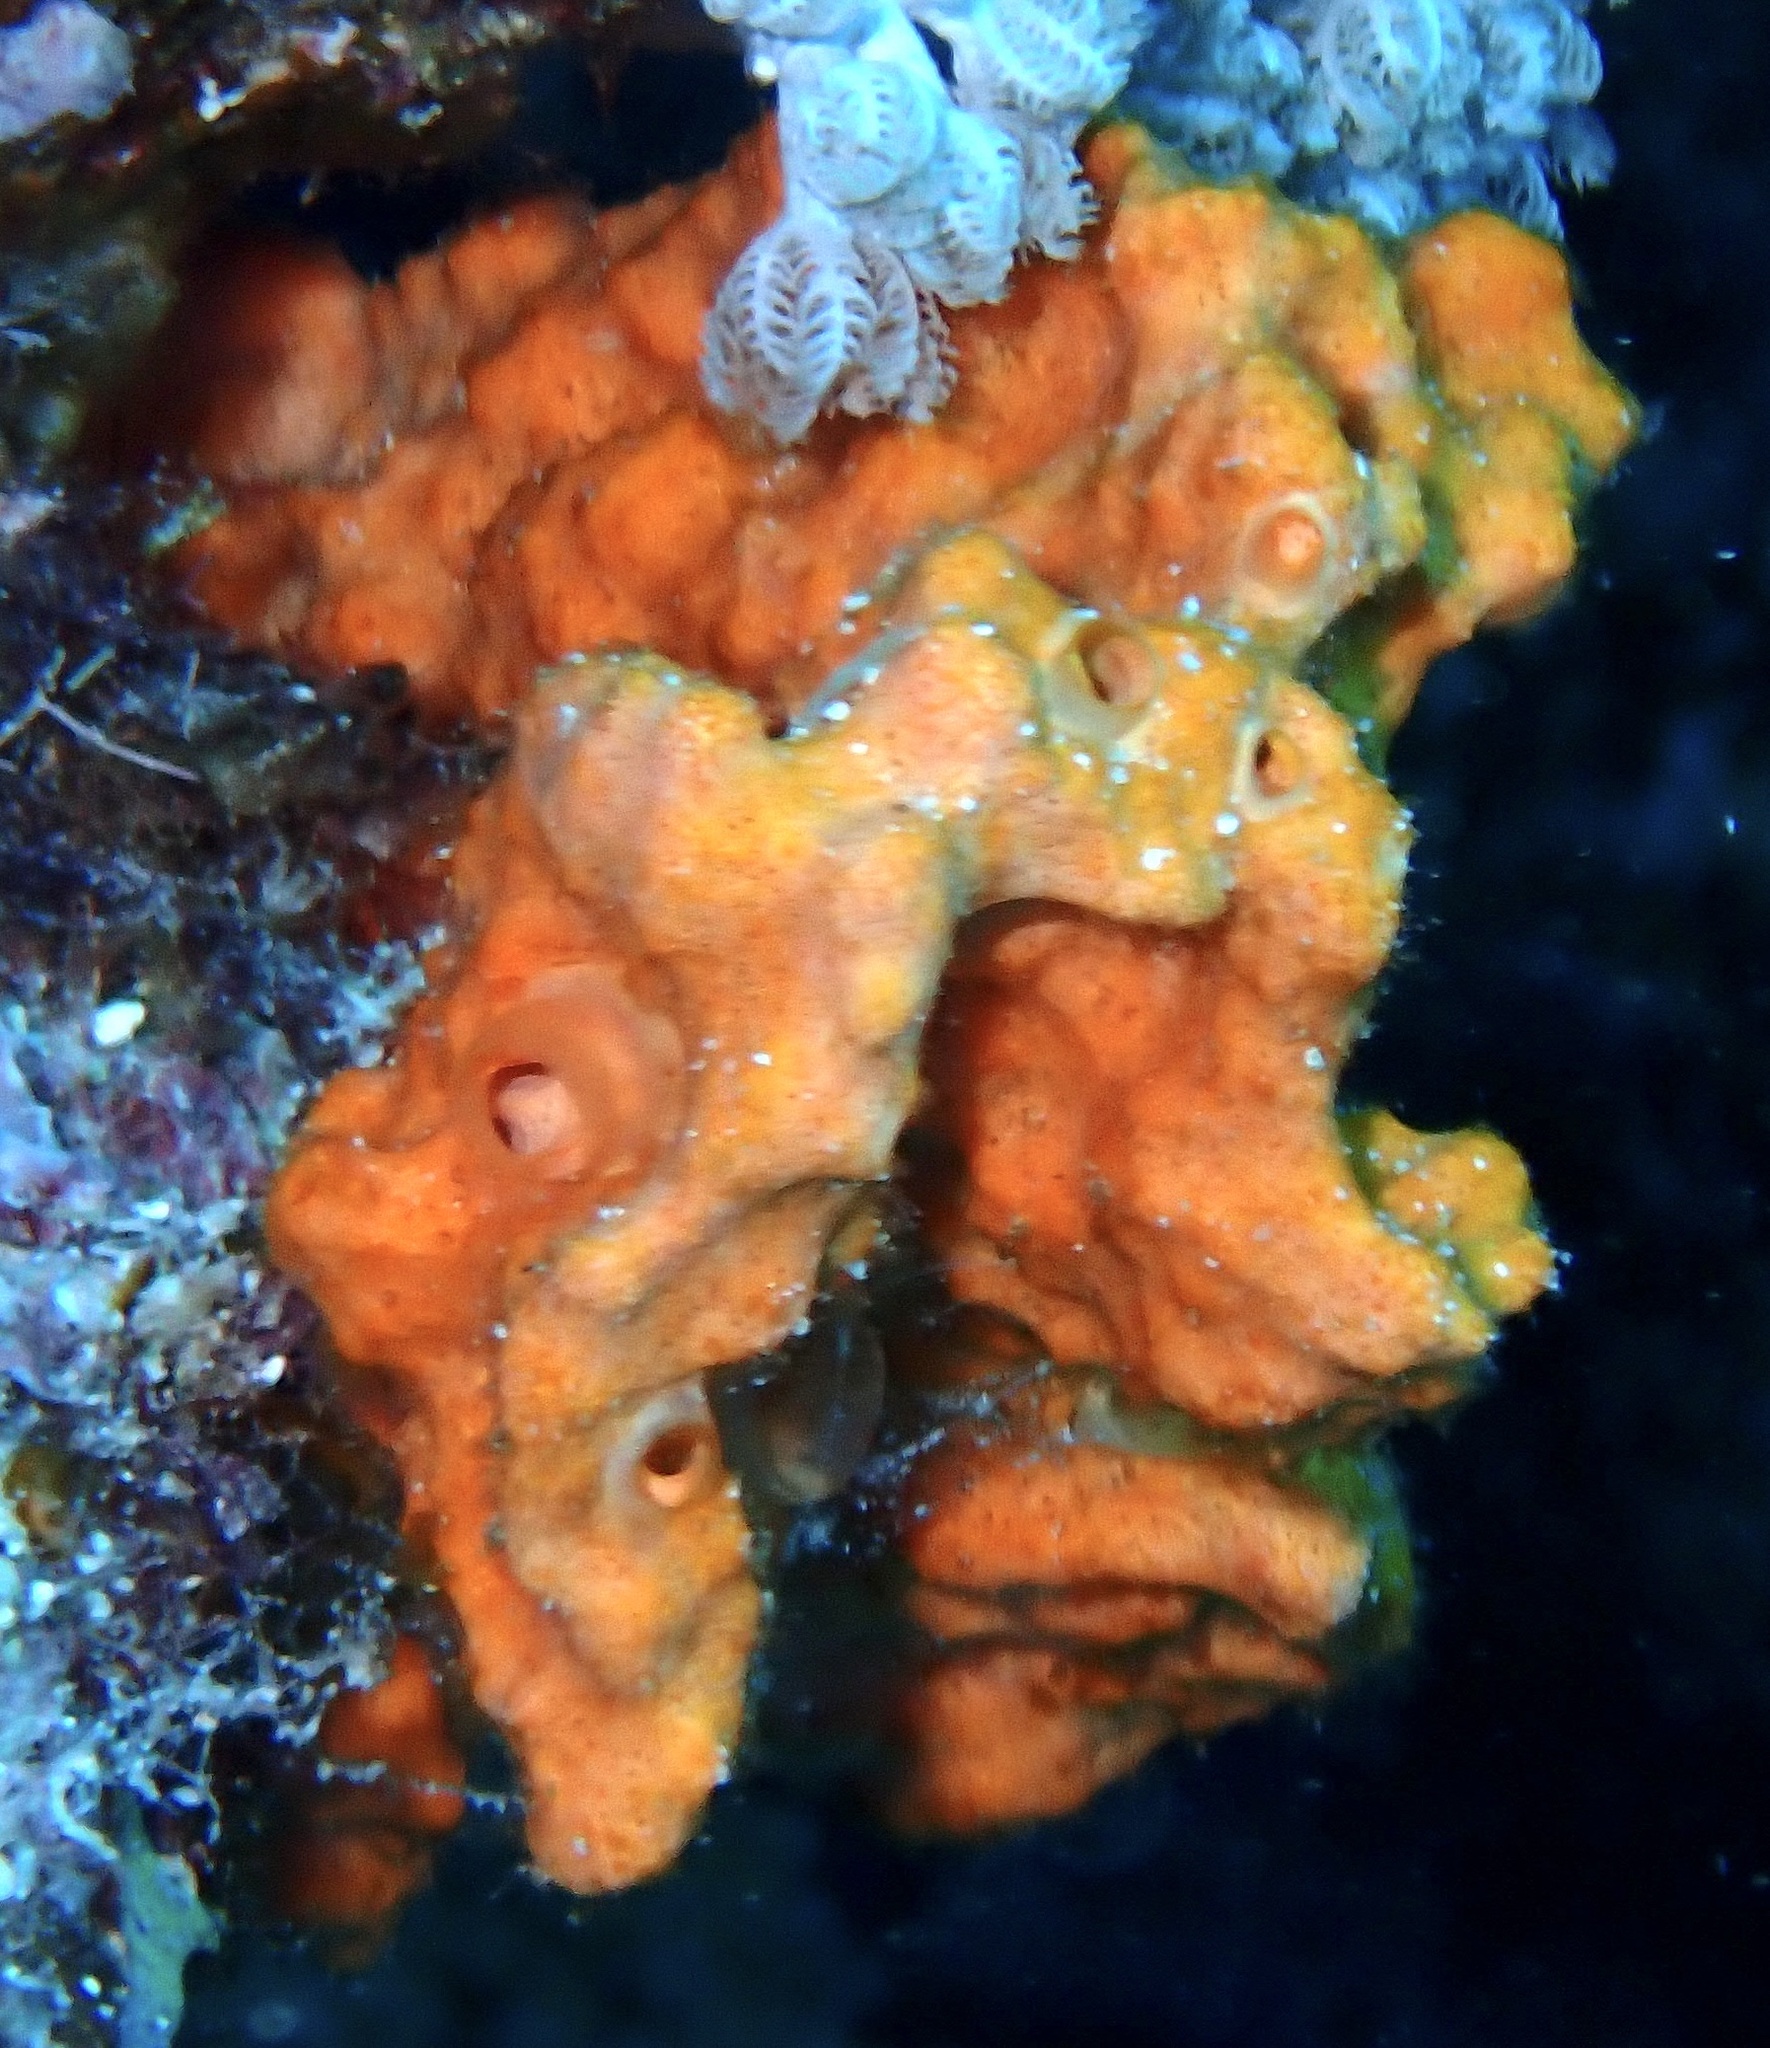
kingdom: Animalia
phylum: Porifera
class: Demospongiae
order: Scopalinida
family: Scopalinidae
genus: Stylissa
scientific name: Stylissa carteri
